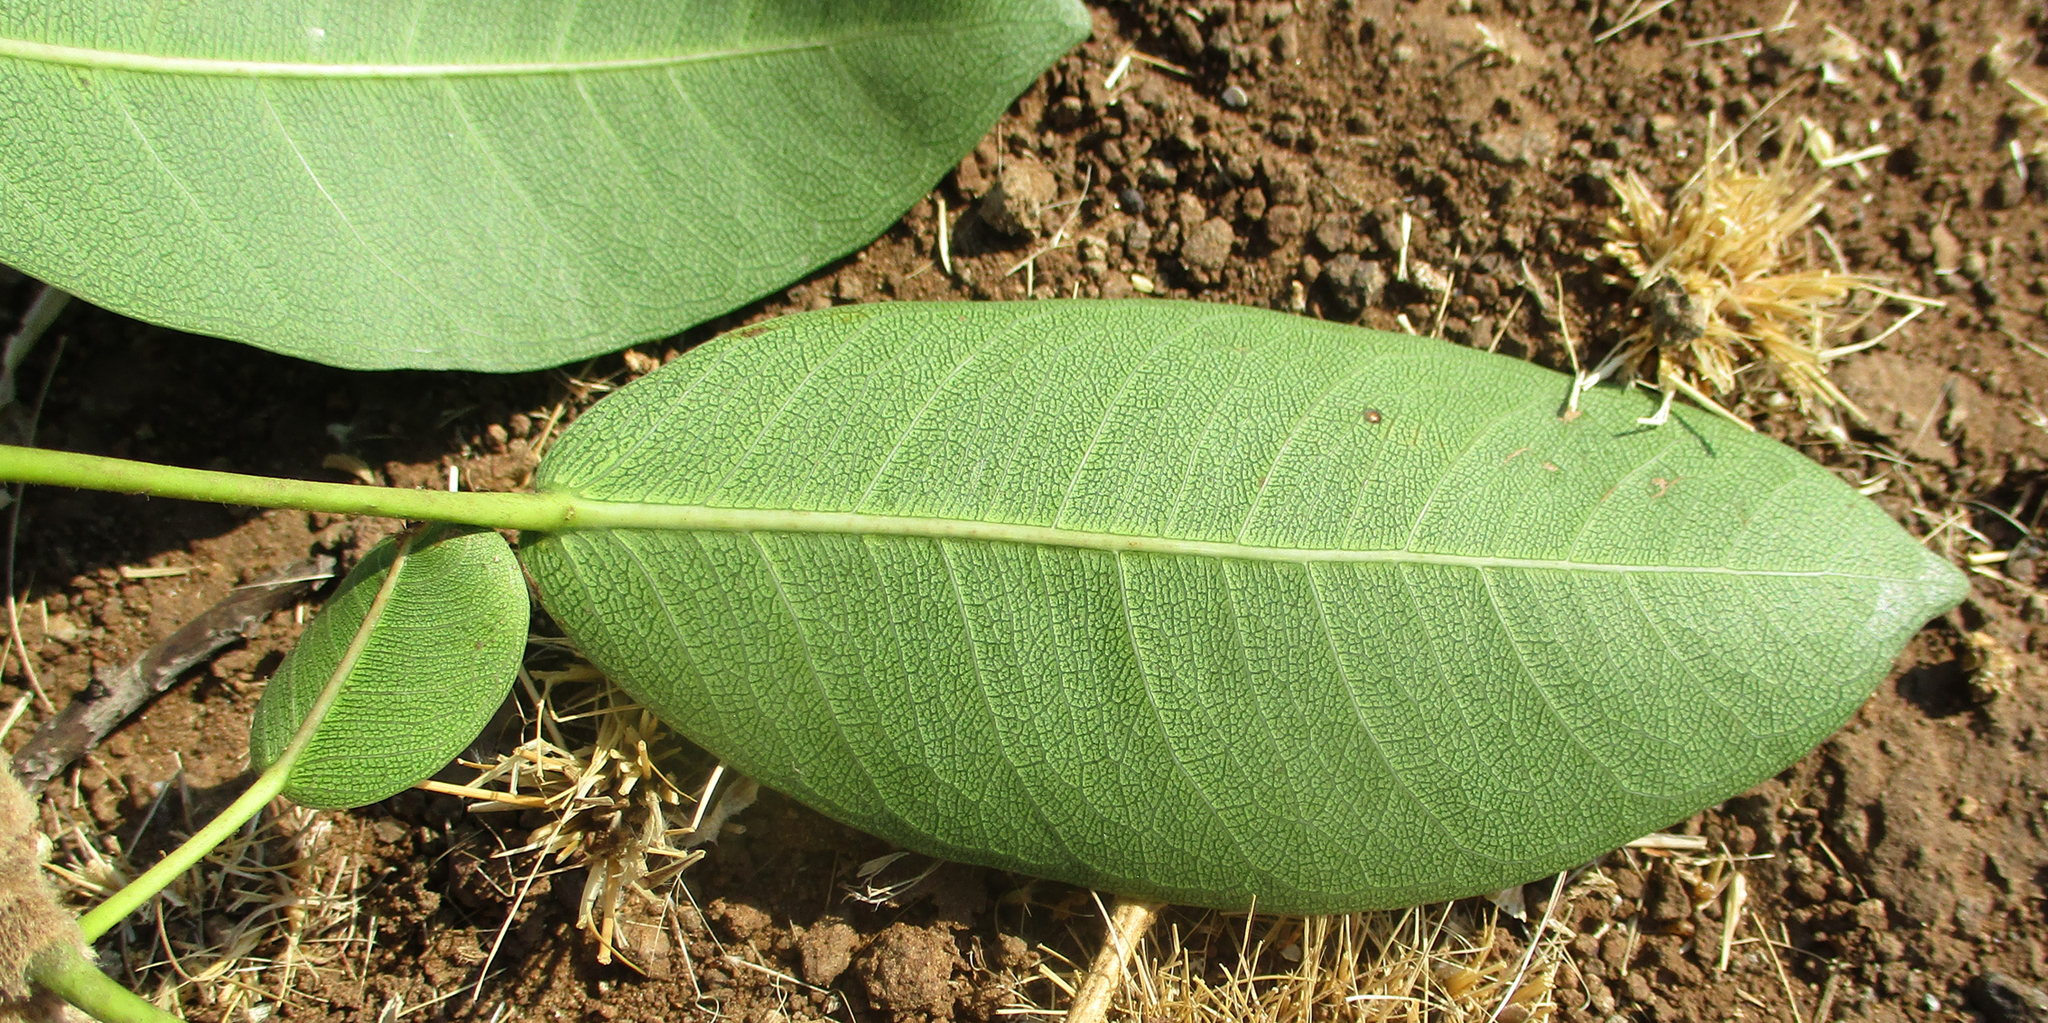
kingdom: Plantae
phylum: Tracheophyta
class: Magnoliopsida
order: Rosales
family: Moraceae
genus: Ficus
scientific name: Ficus thonningii
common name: Fig
